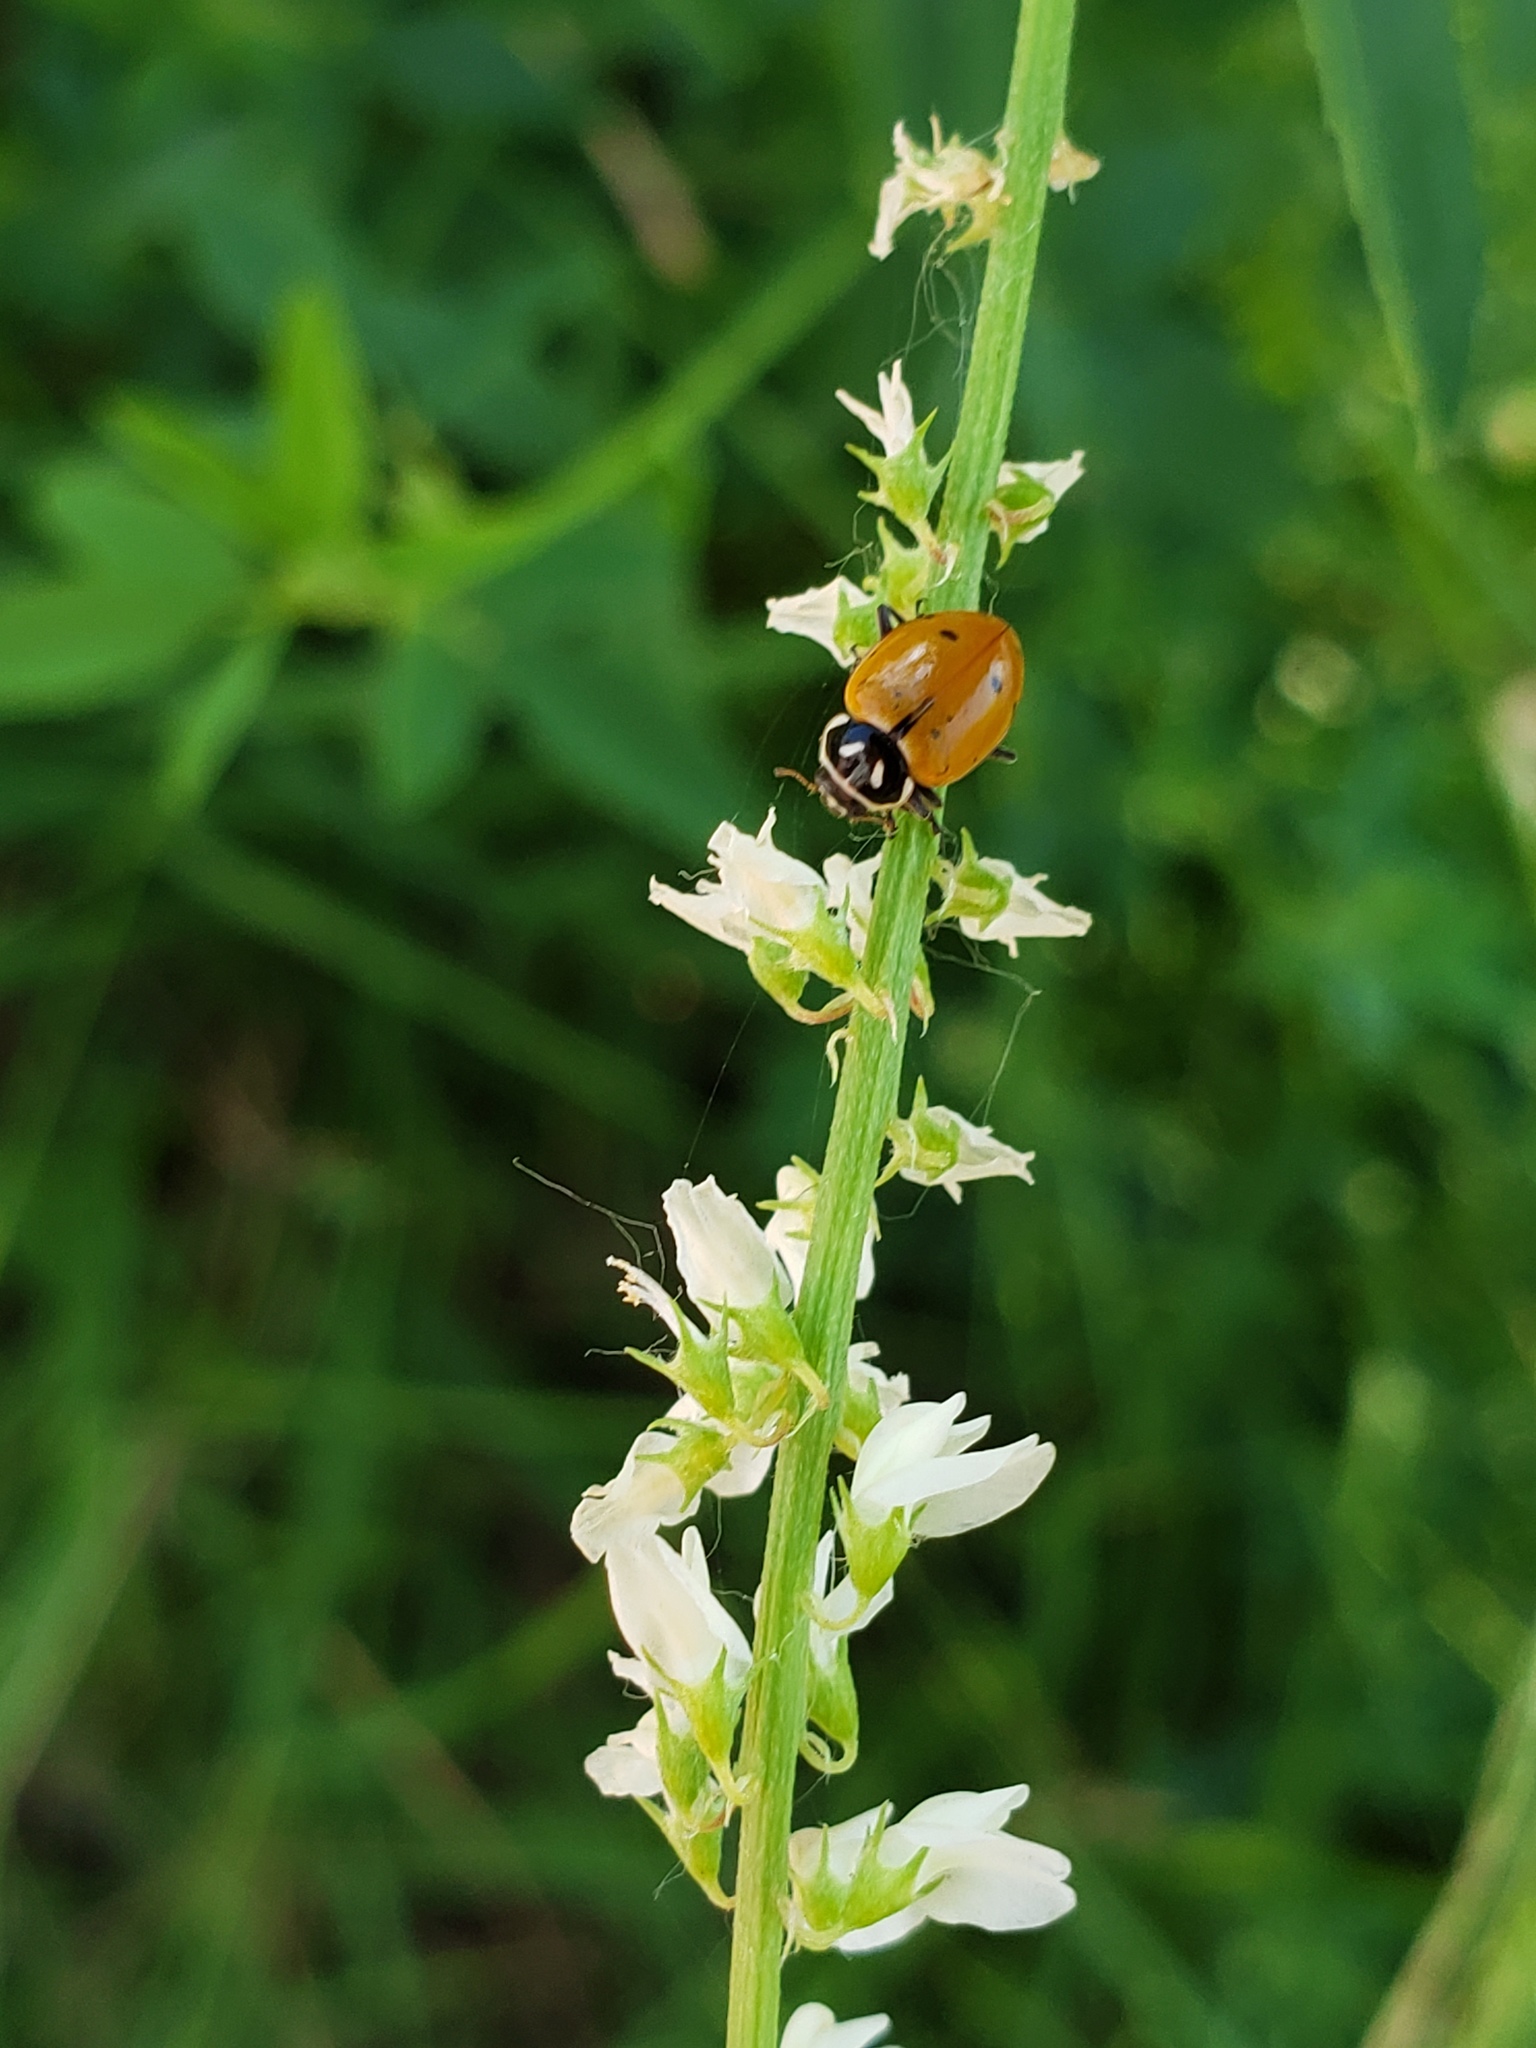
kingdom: Plantae
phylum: Tracheophyta
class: Magnoliopsida
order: Fabales
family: Fabaceae
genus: Melilotus
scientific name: Melilotus albus
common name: White melilot
